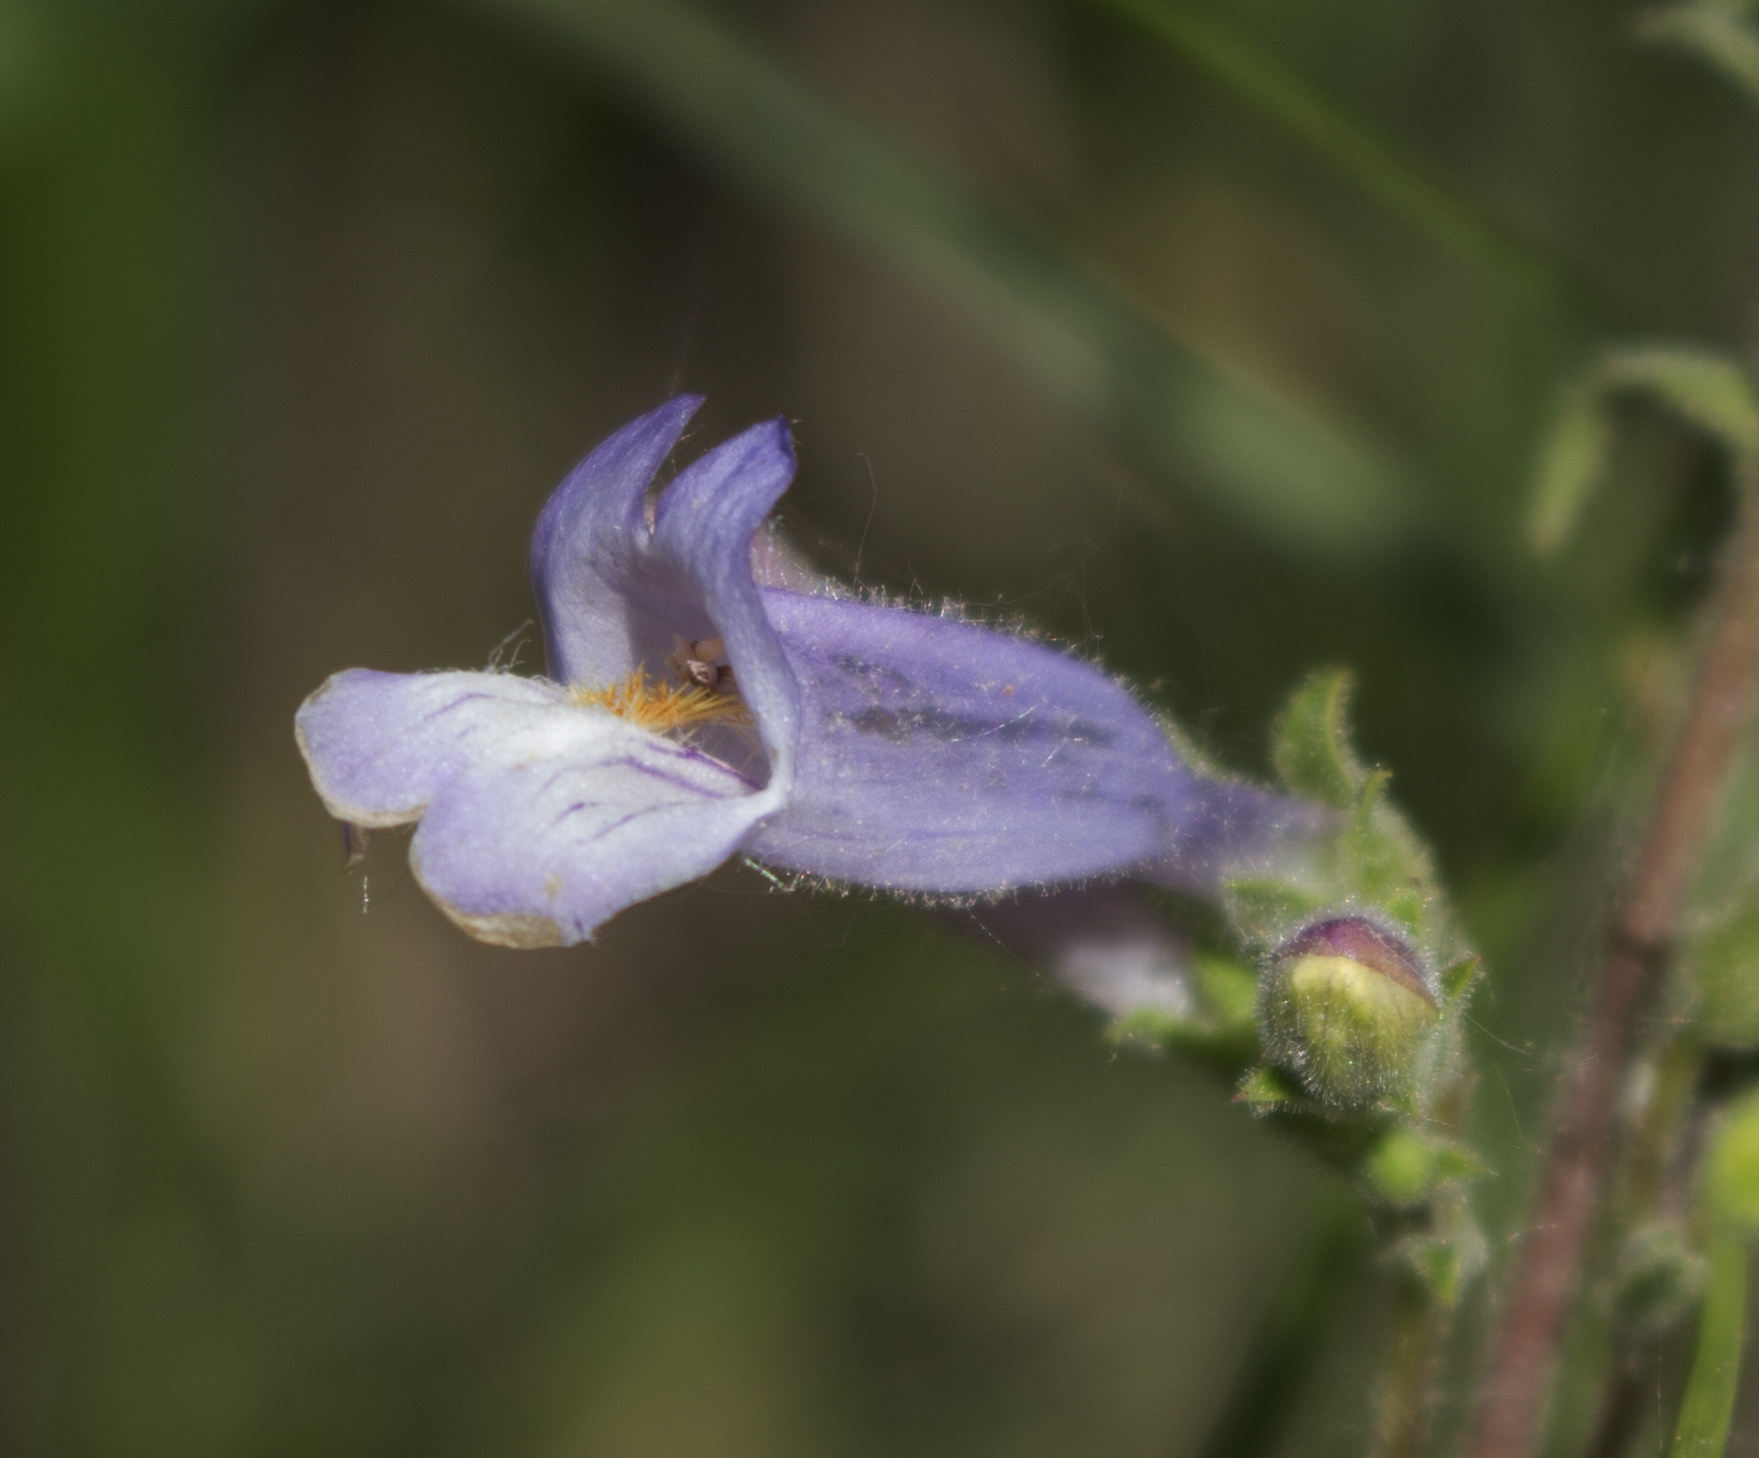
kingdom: Plantae
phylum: Tracheophyta
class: Magnoliopsida
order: Lamiales
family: Plantaginaceae
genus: Penstemon
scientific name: Penstemon gracilis
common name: Slender beardtongue
